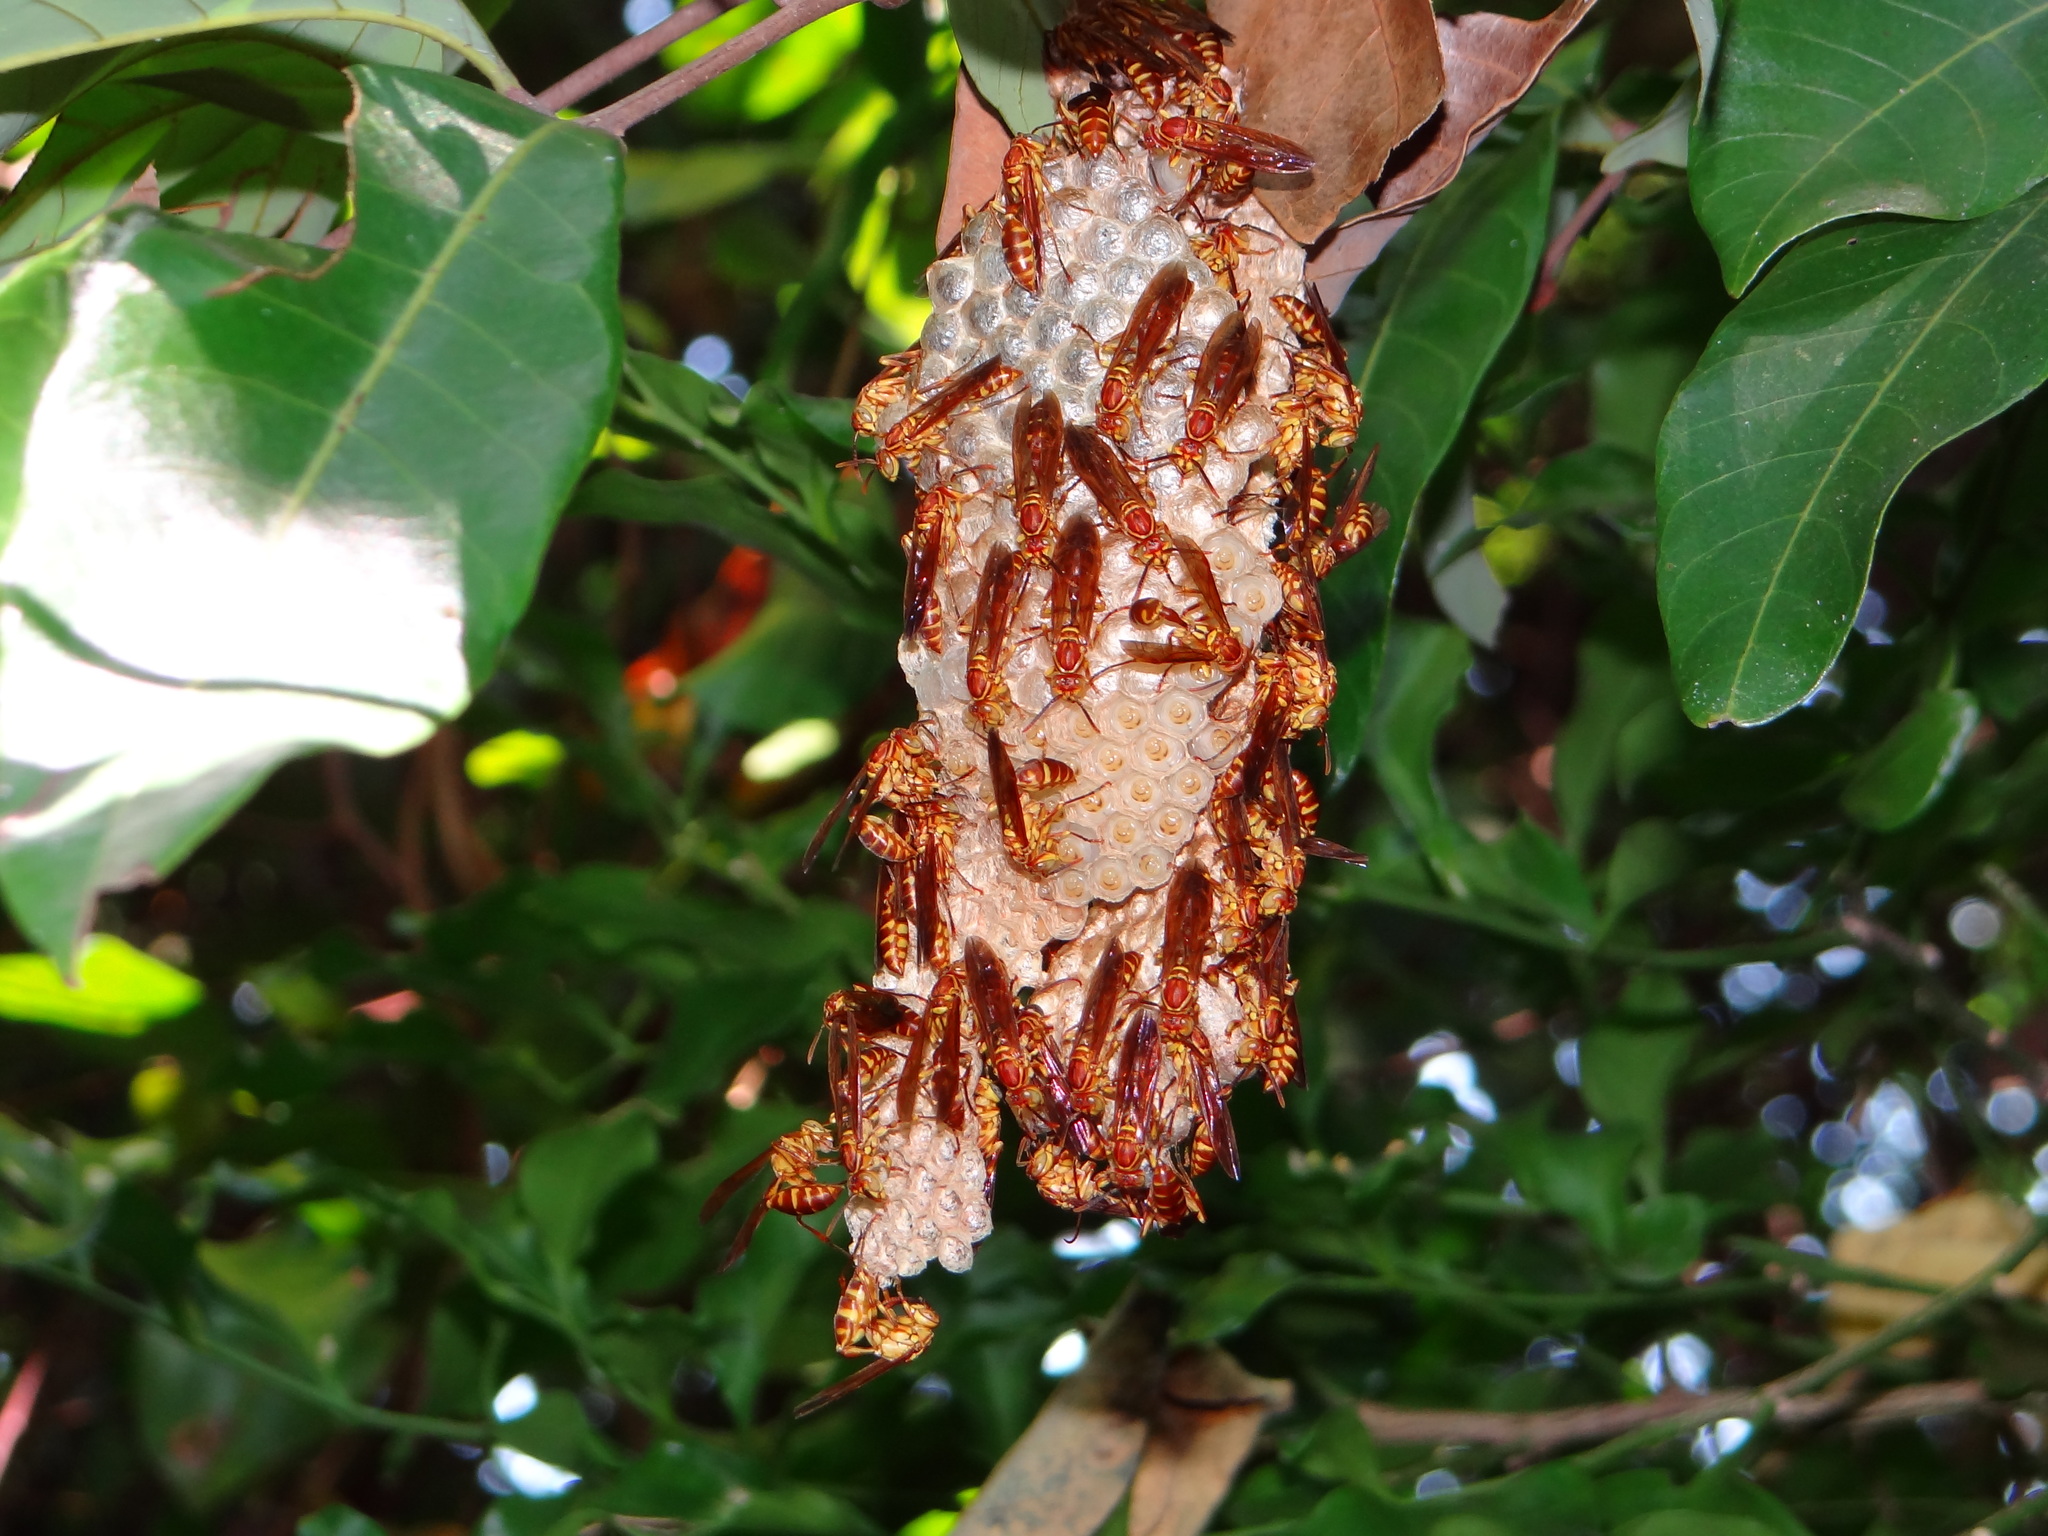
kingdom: Animalia
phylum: Arthropoda
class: Insecta
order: Hymenoptera
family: Vespidae
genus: Parapolybia
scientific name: Parapolybia varia
